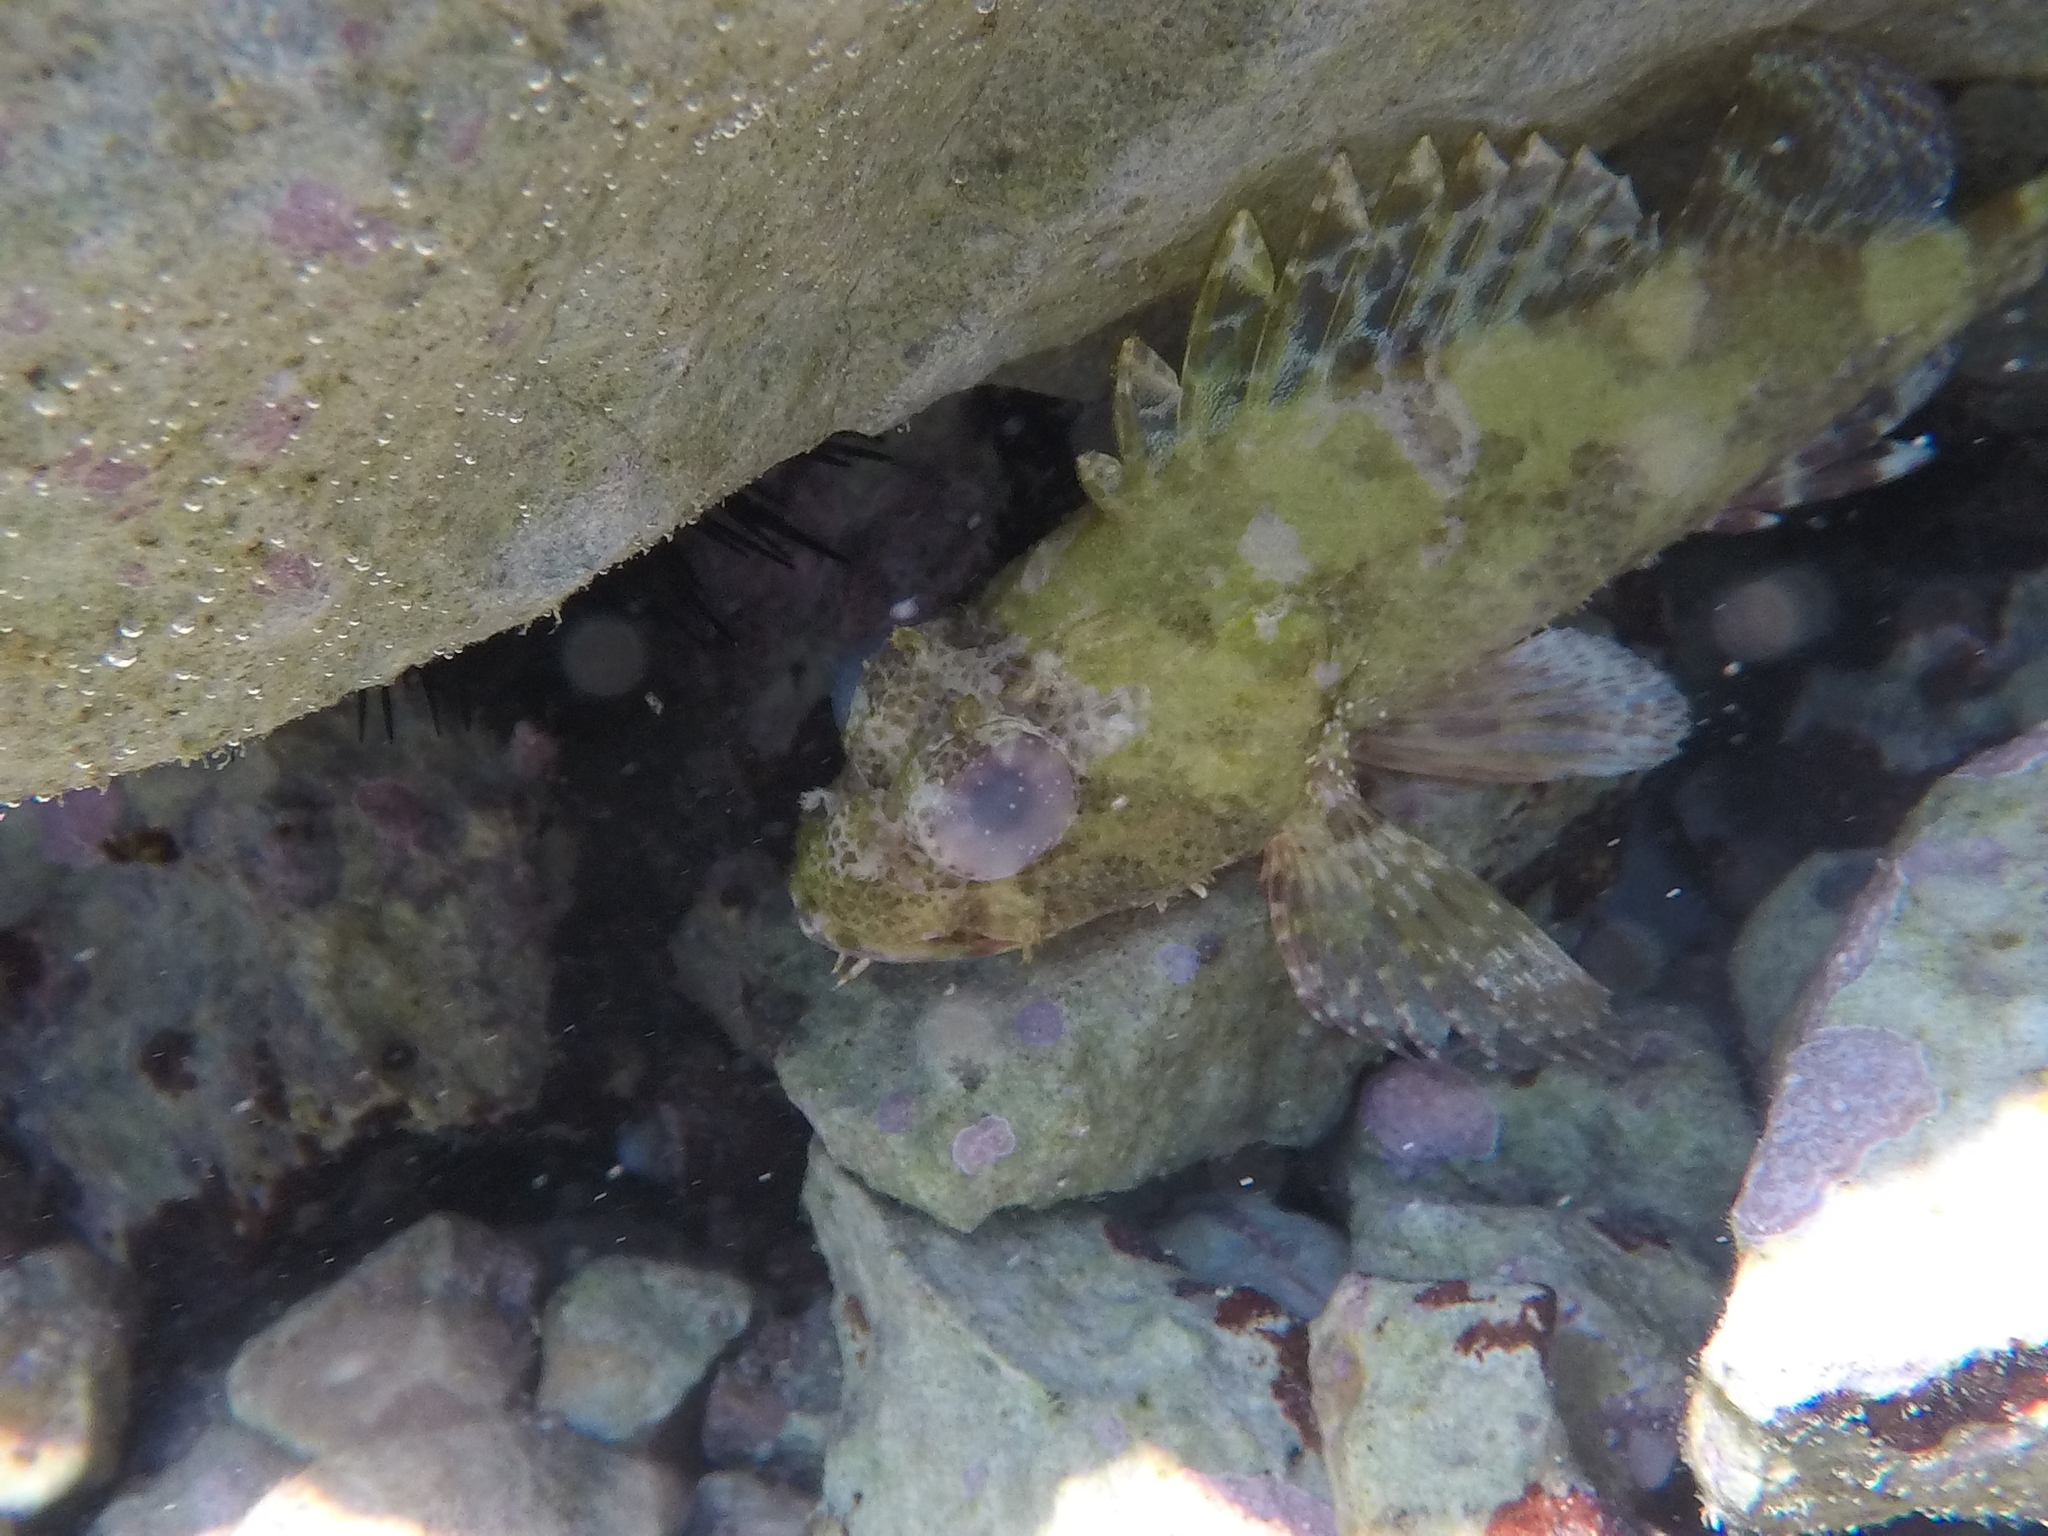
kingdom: Animalia
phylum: Chordata
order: Scorpaeniformes
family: Scorpaenidae
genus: Scorpaena
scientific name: Scorpaena maderensis
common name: Madeira rockfish
